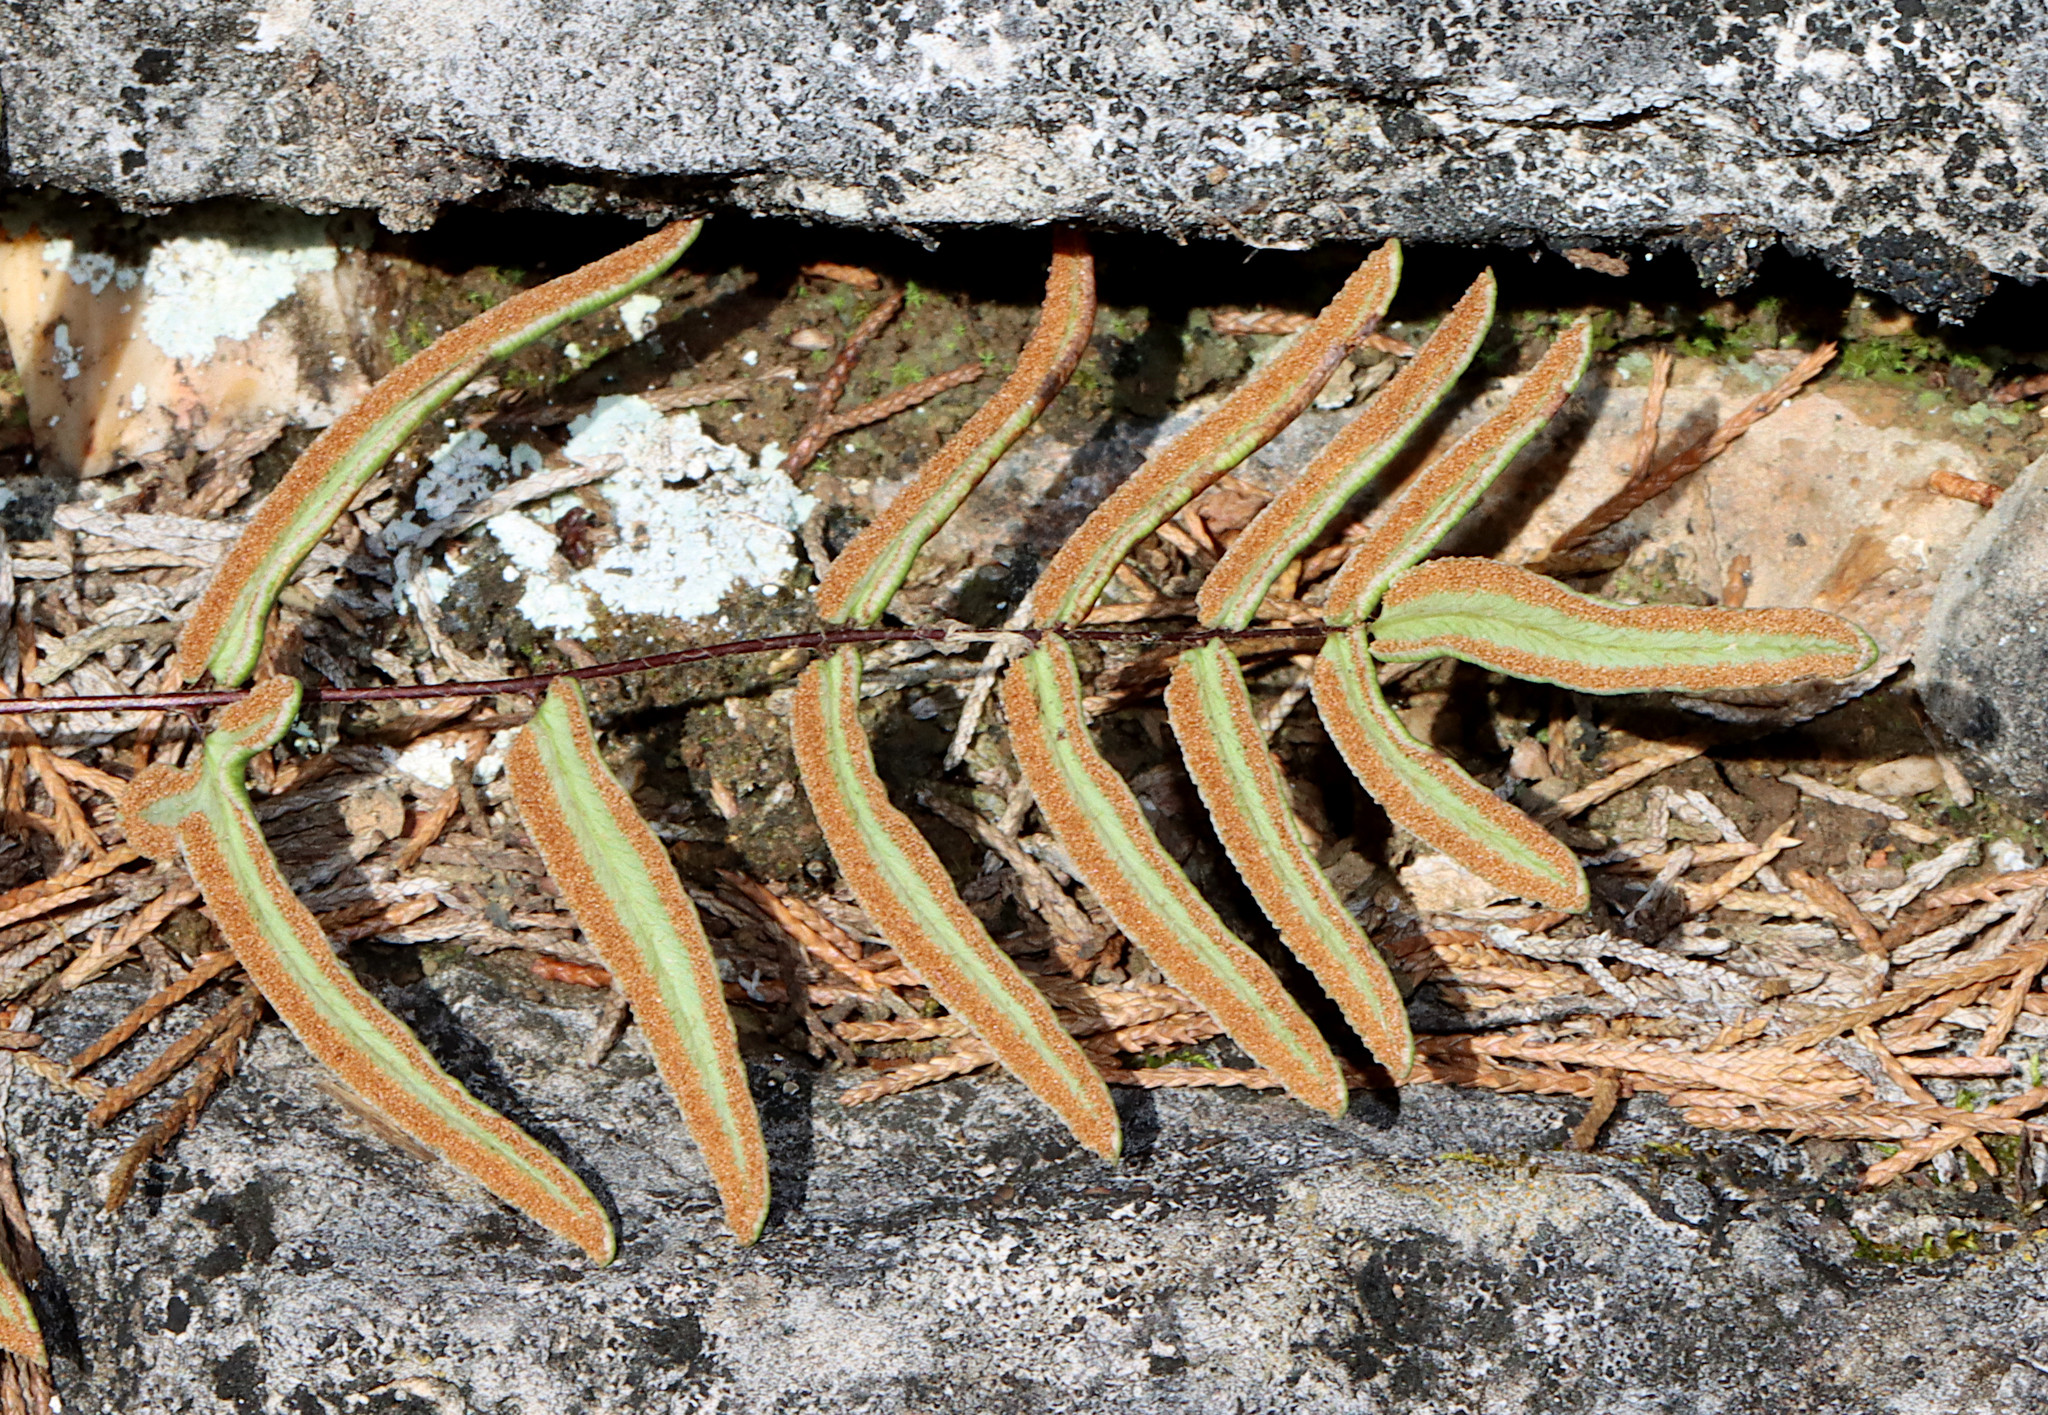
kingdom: Plantae
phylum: Tracheophyta
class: Polypodiopsida
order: Polypodiales
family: Pteridaceae
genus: Pellaea
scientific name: Pellaea atropurpurea
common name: Hairy cliffbrake
